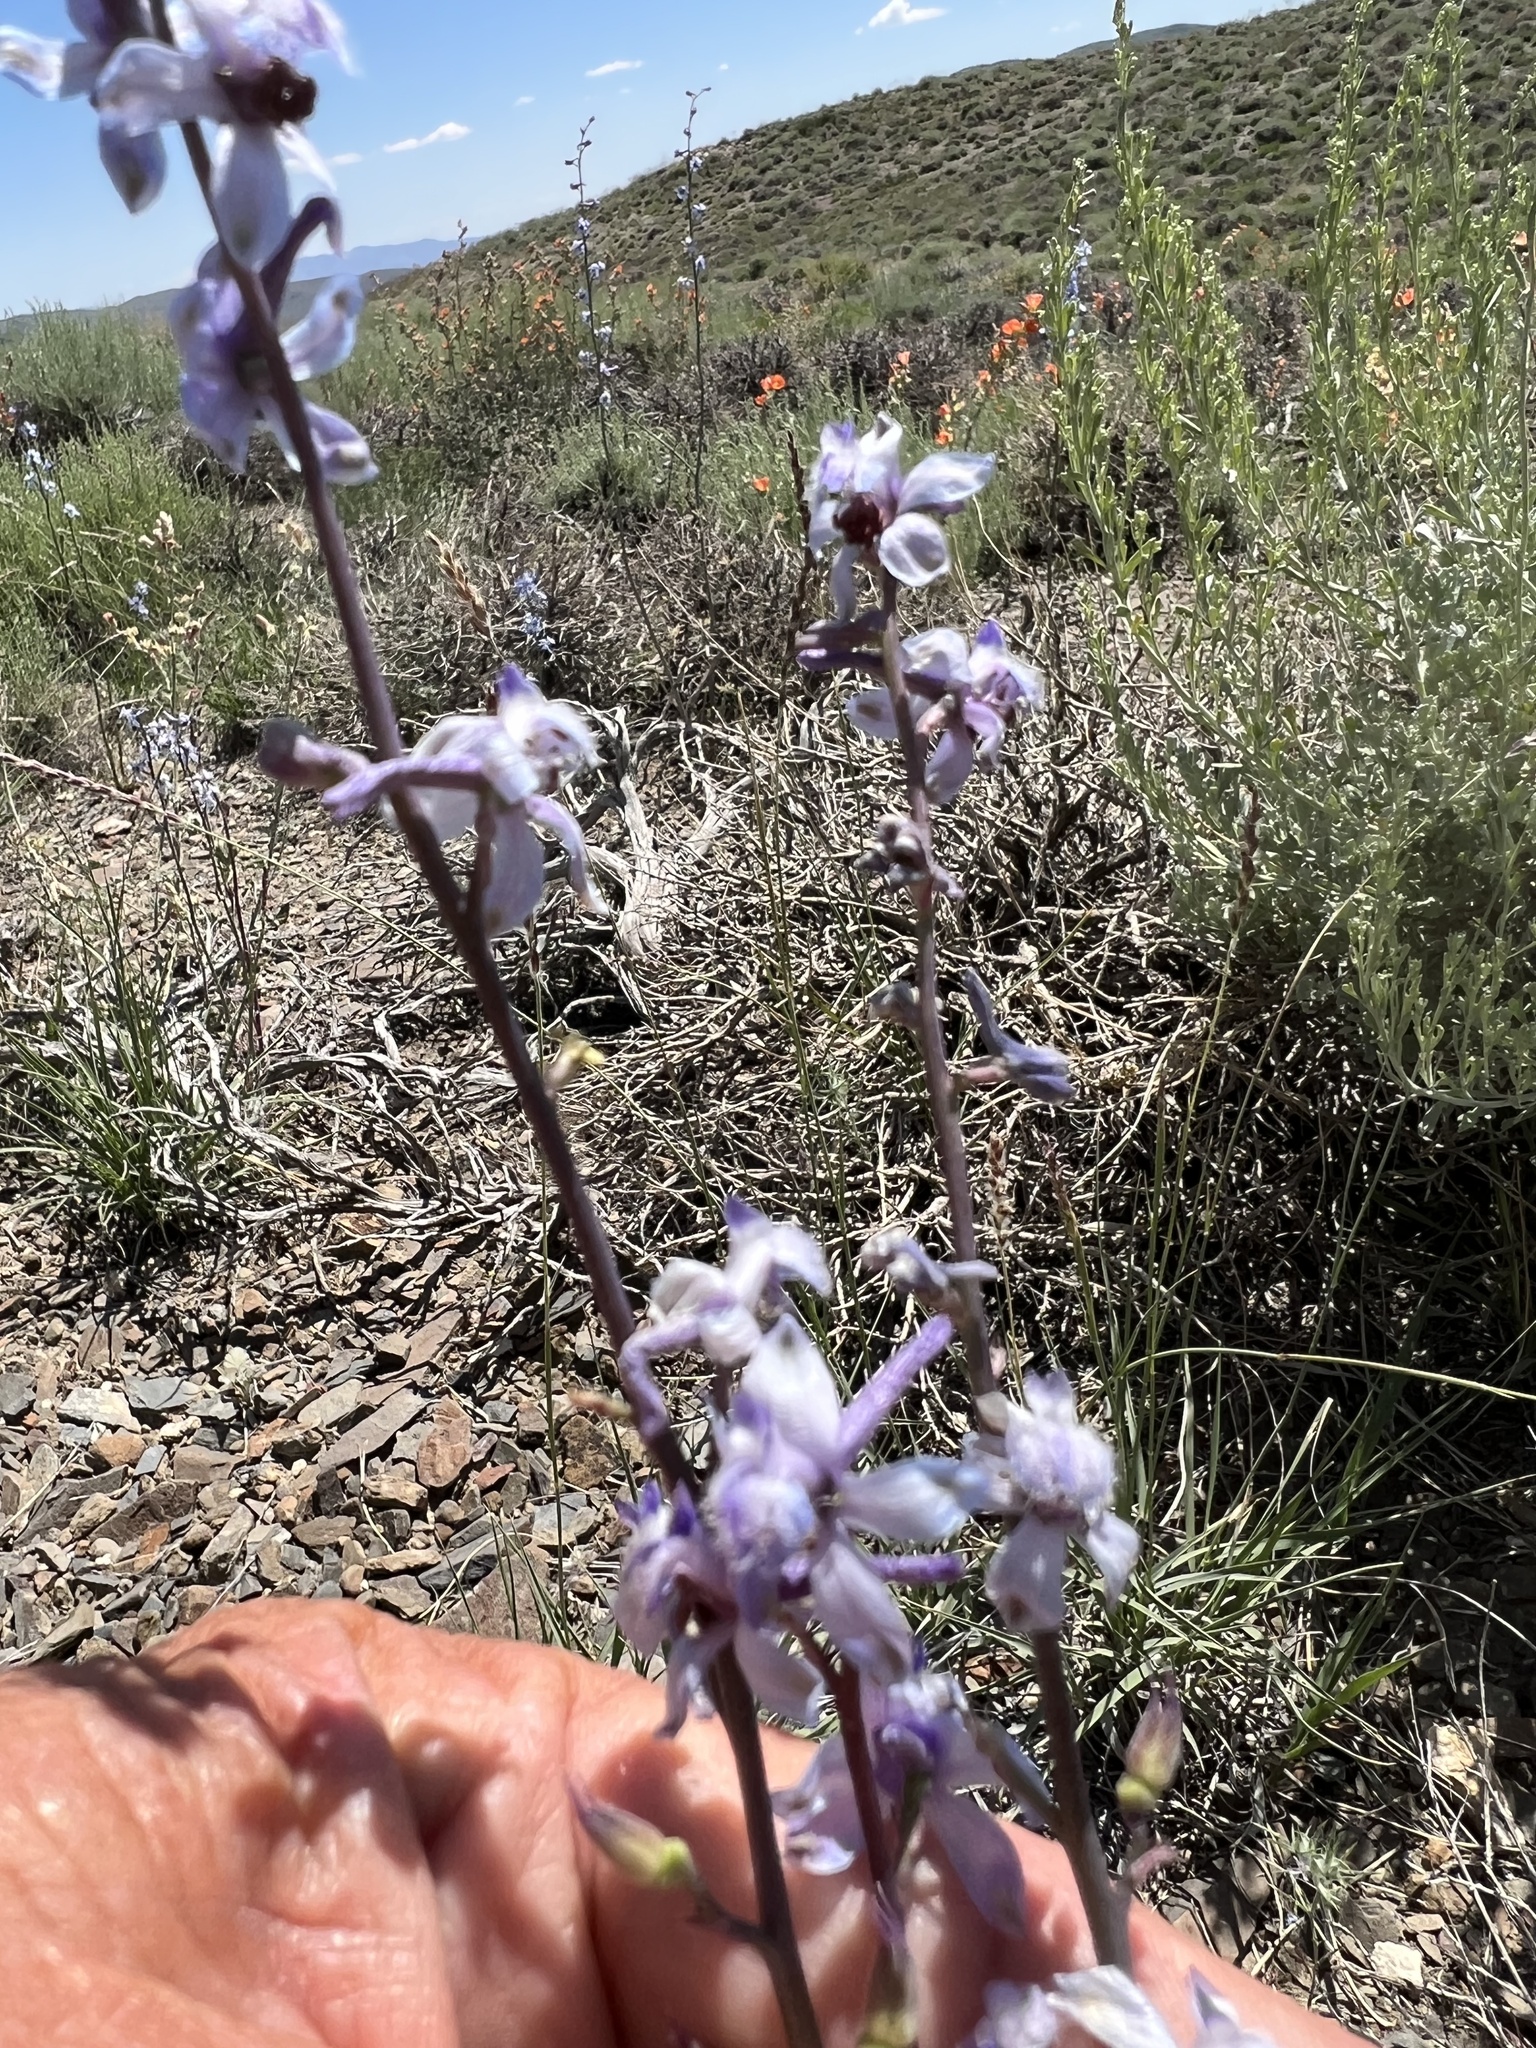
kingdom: Plantae
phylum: Tracheophyta
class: Magnoliopsida
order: Ranunculales
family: Ranunculaceae
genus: Delphinium
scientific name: Delphinium parishii
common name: Apache larkspur
